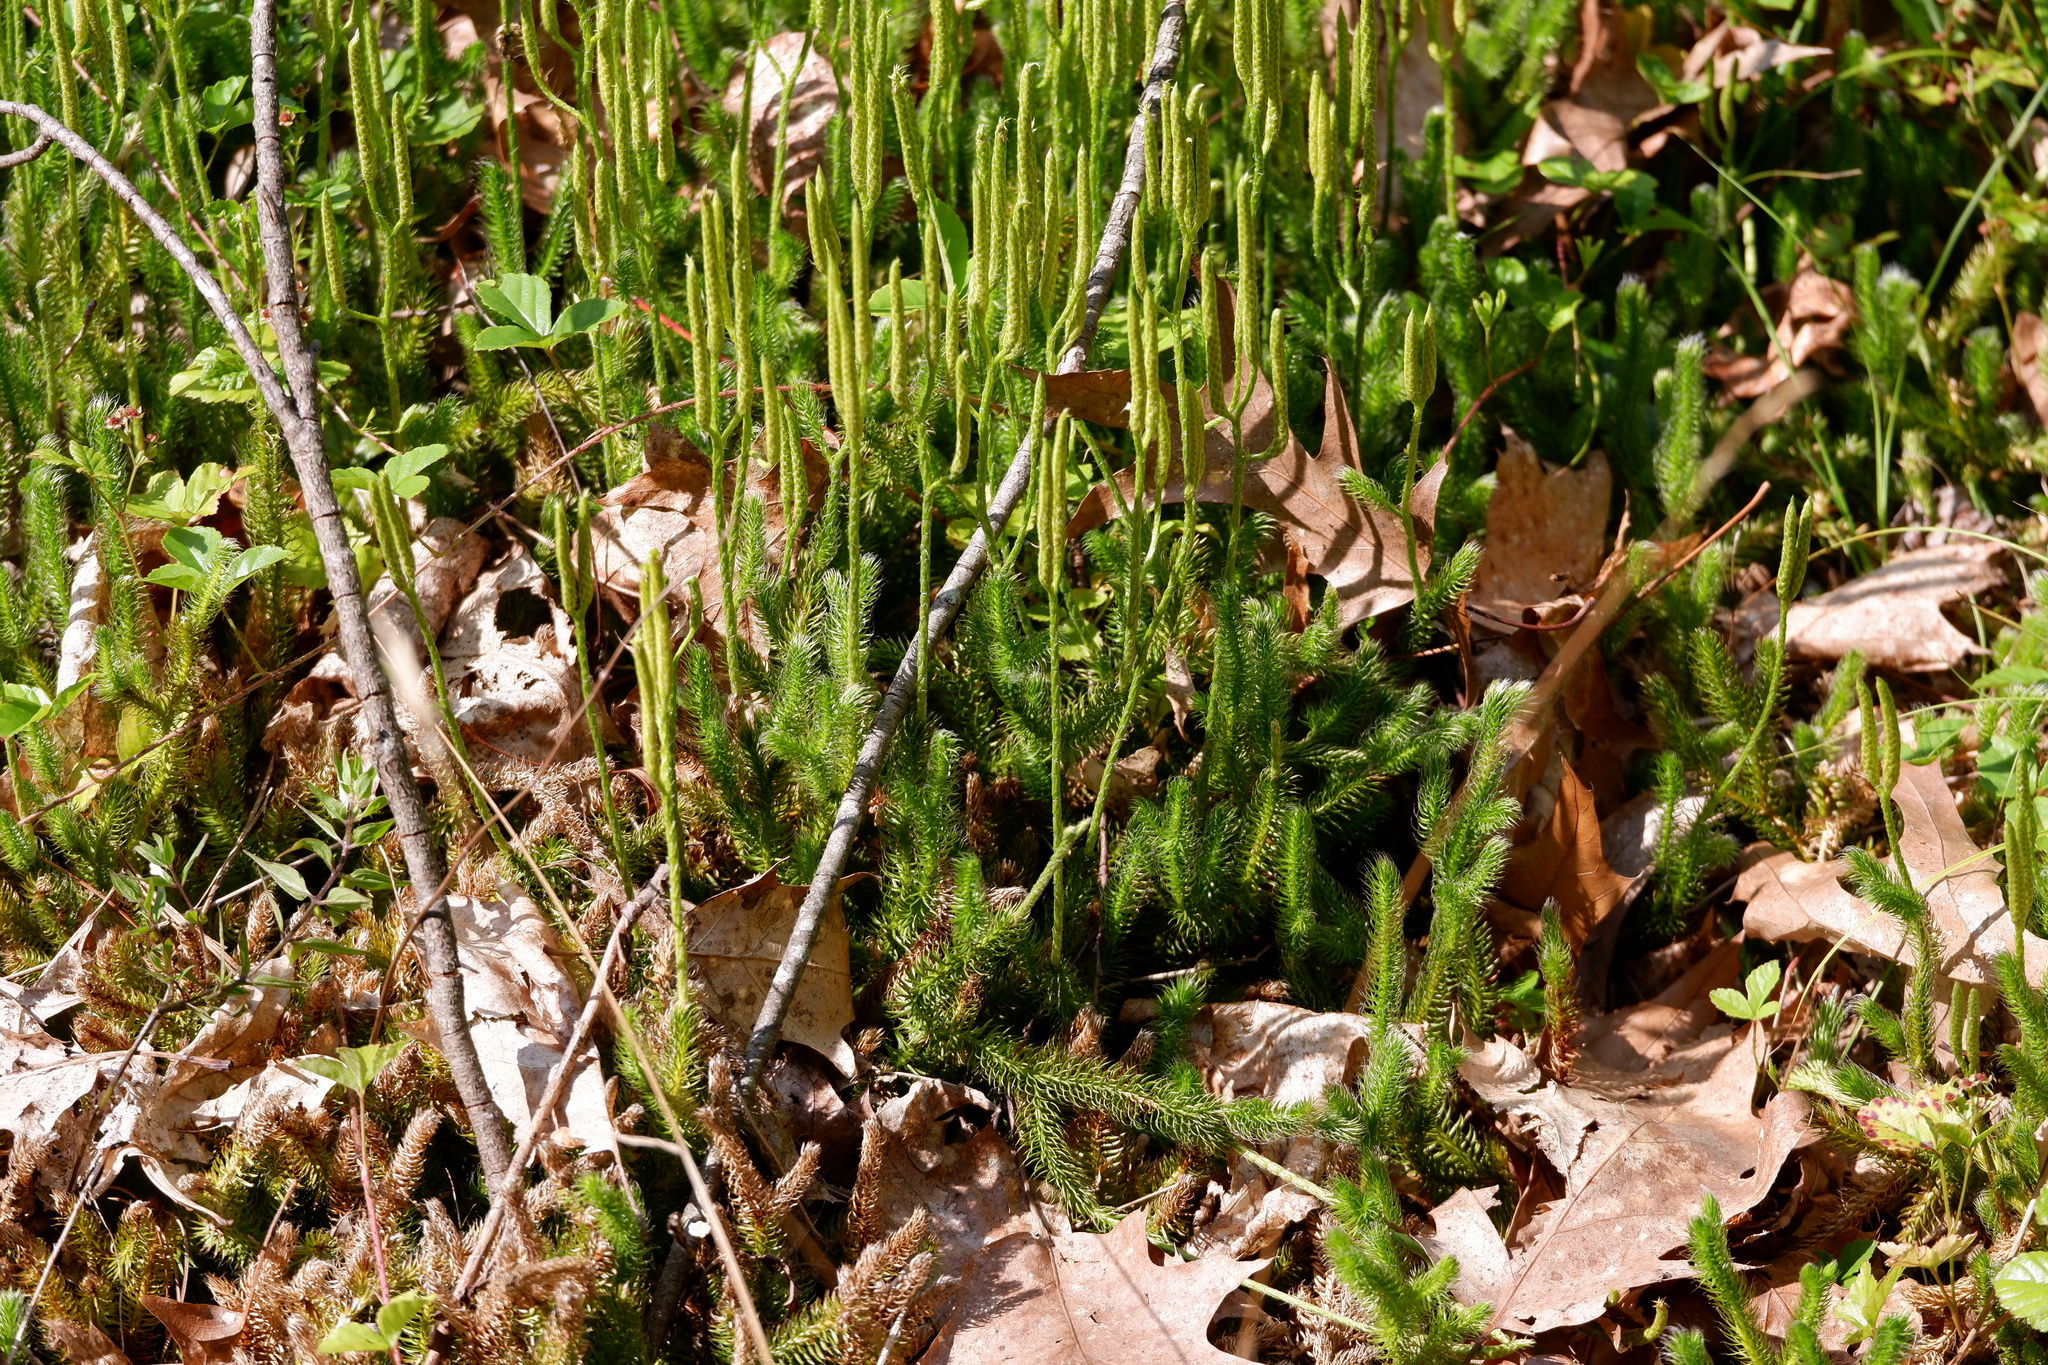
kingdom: Plantae
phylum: Tracheophyta
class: Lycopodiopsida
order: Lycopodiales
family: Lycopodiaceae
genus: Lycopodium
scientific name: Lycopodium clavatum
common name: Stag's-horn clubmoss
